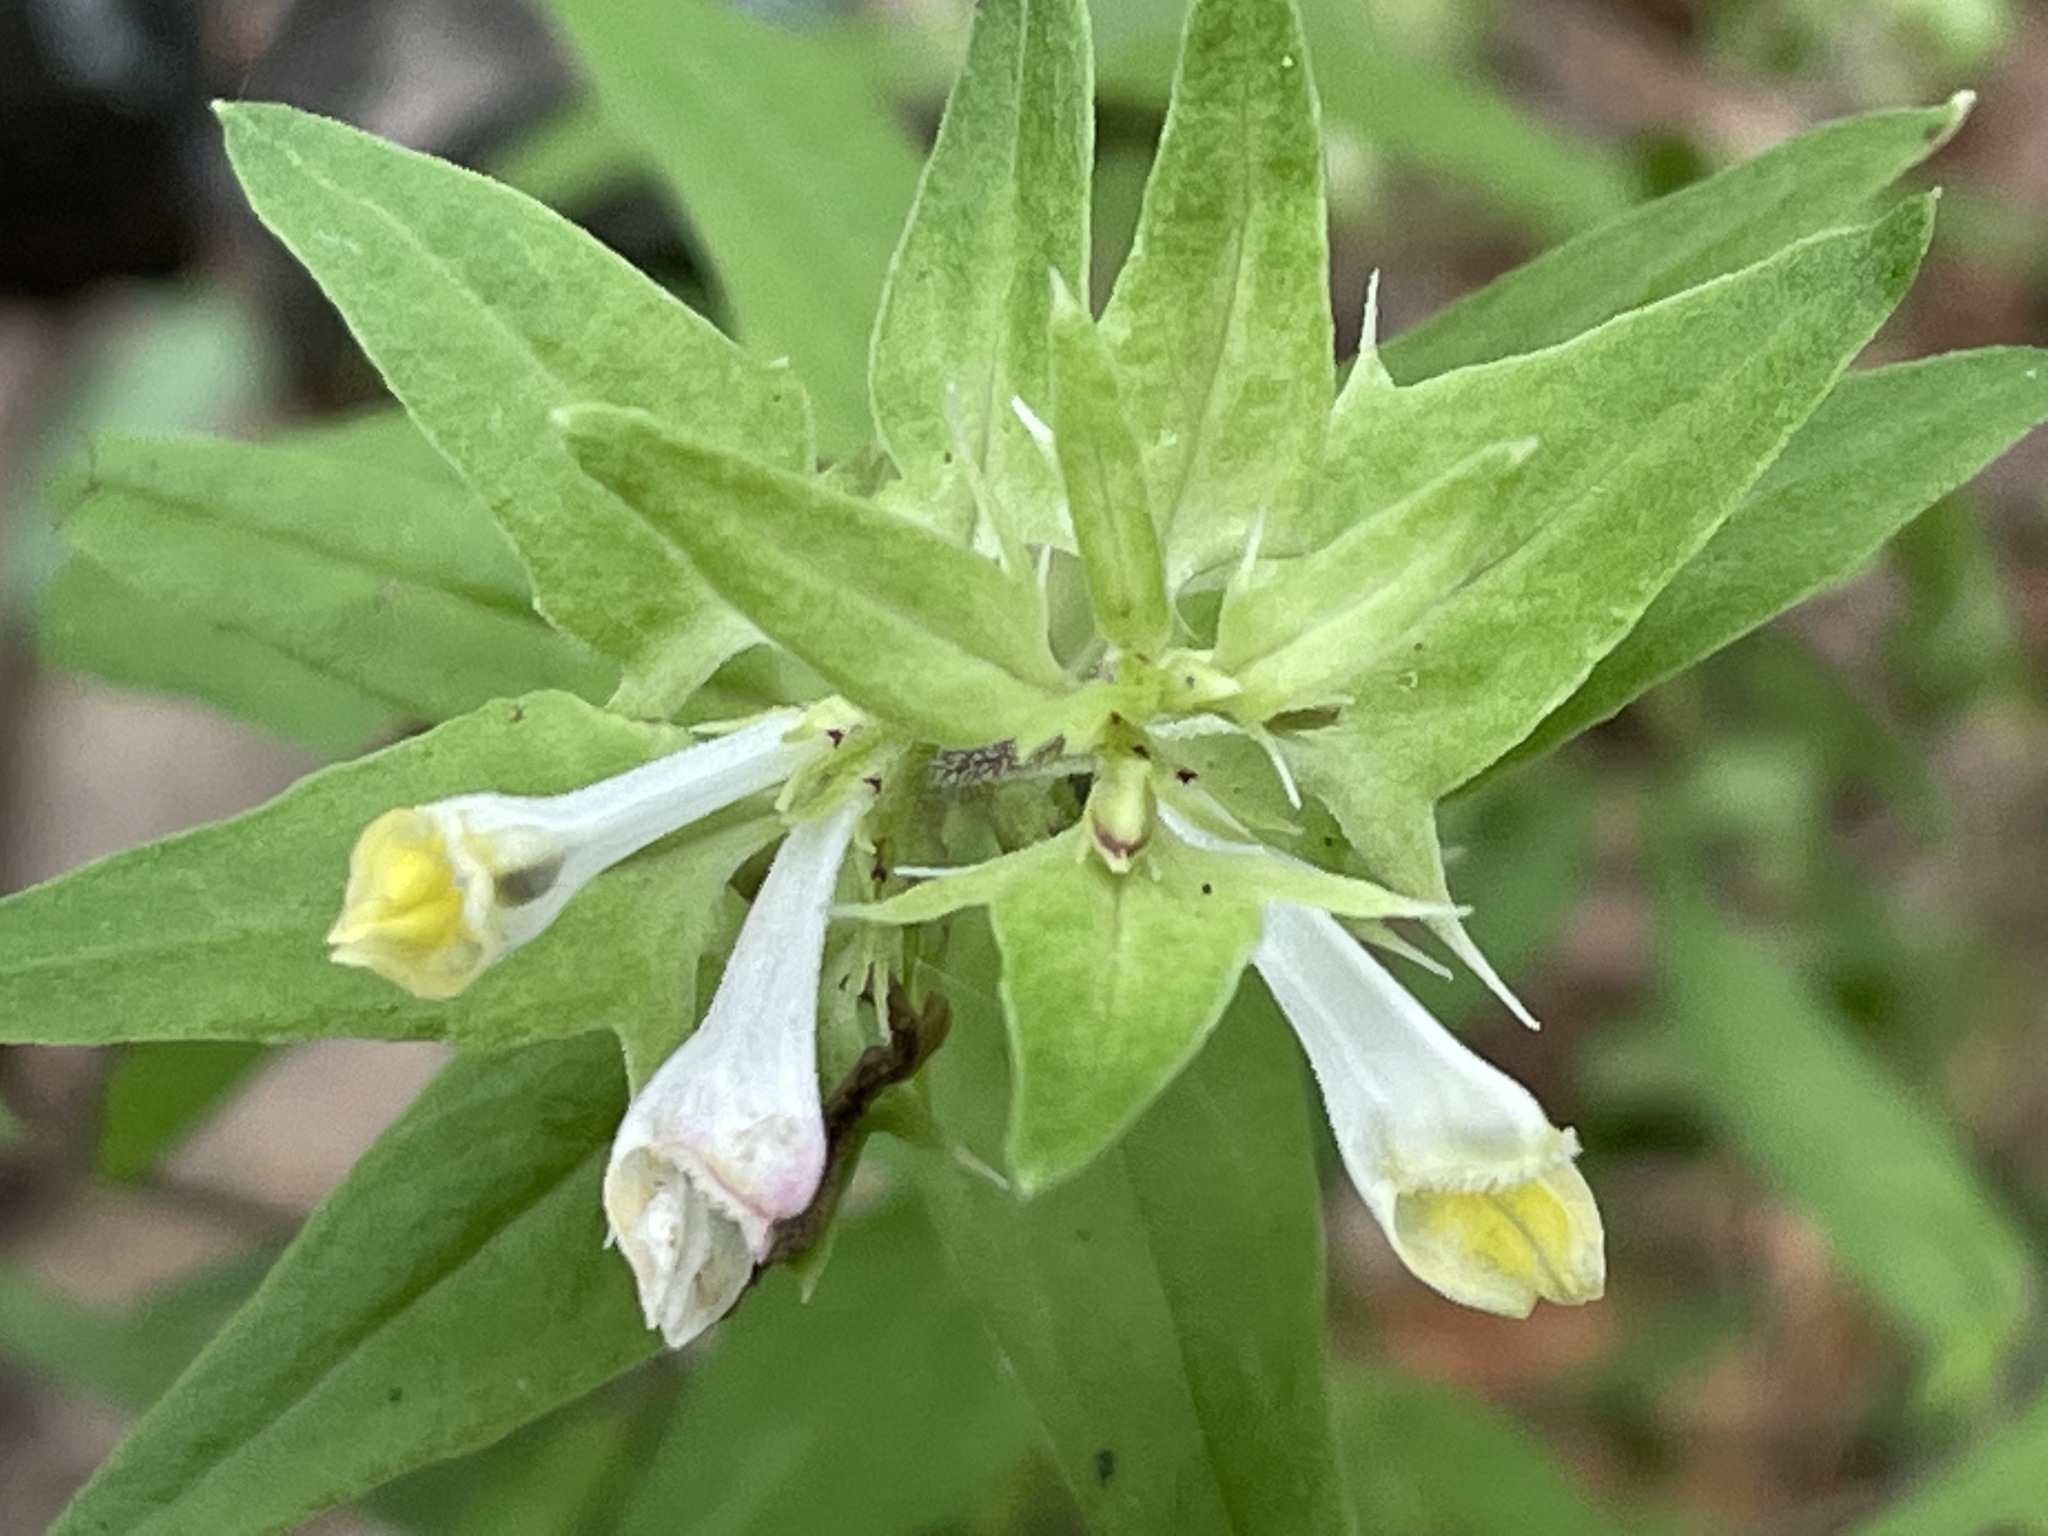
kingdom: Plantae
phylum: Tracheophyta
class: Magnoliopsida
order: Lamiales
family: Orobanchaceae
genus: Melampyrum
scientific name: Melampyrum lineare
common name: American cow-wheat
